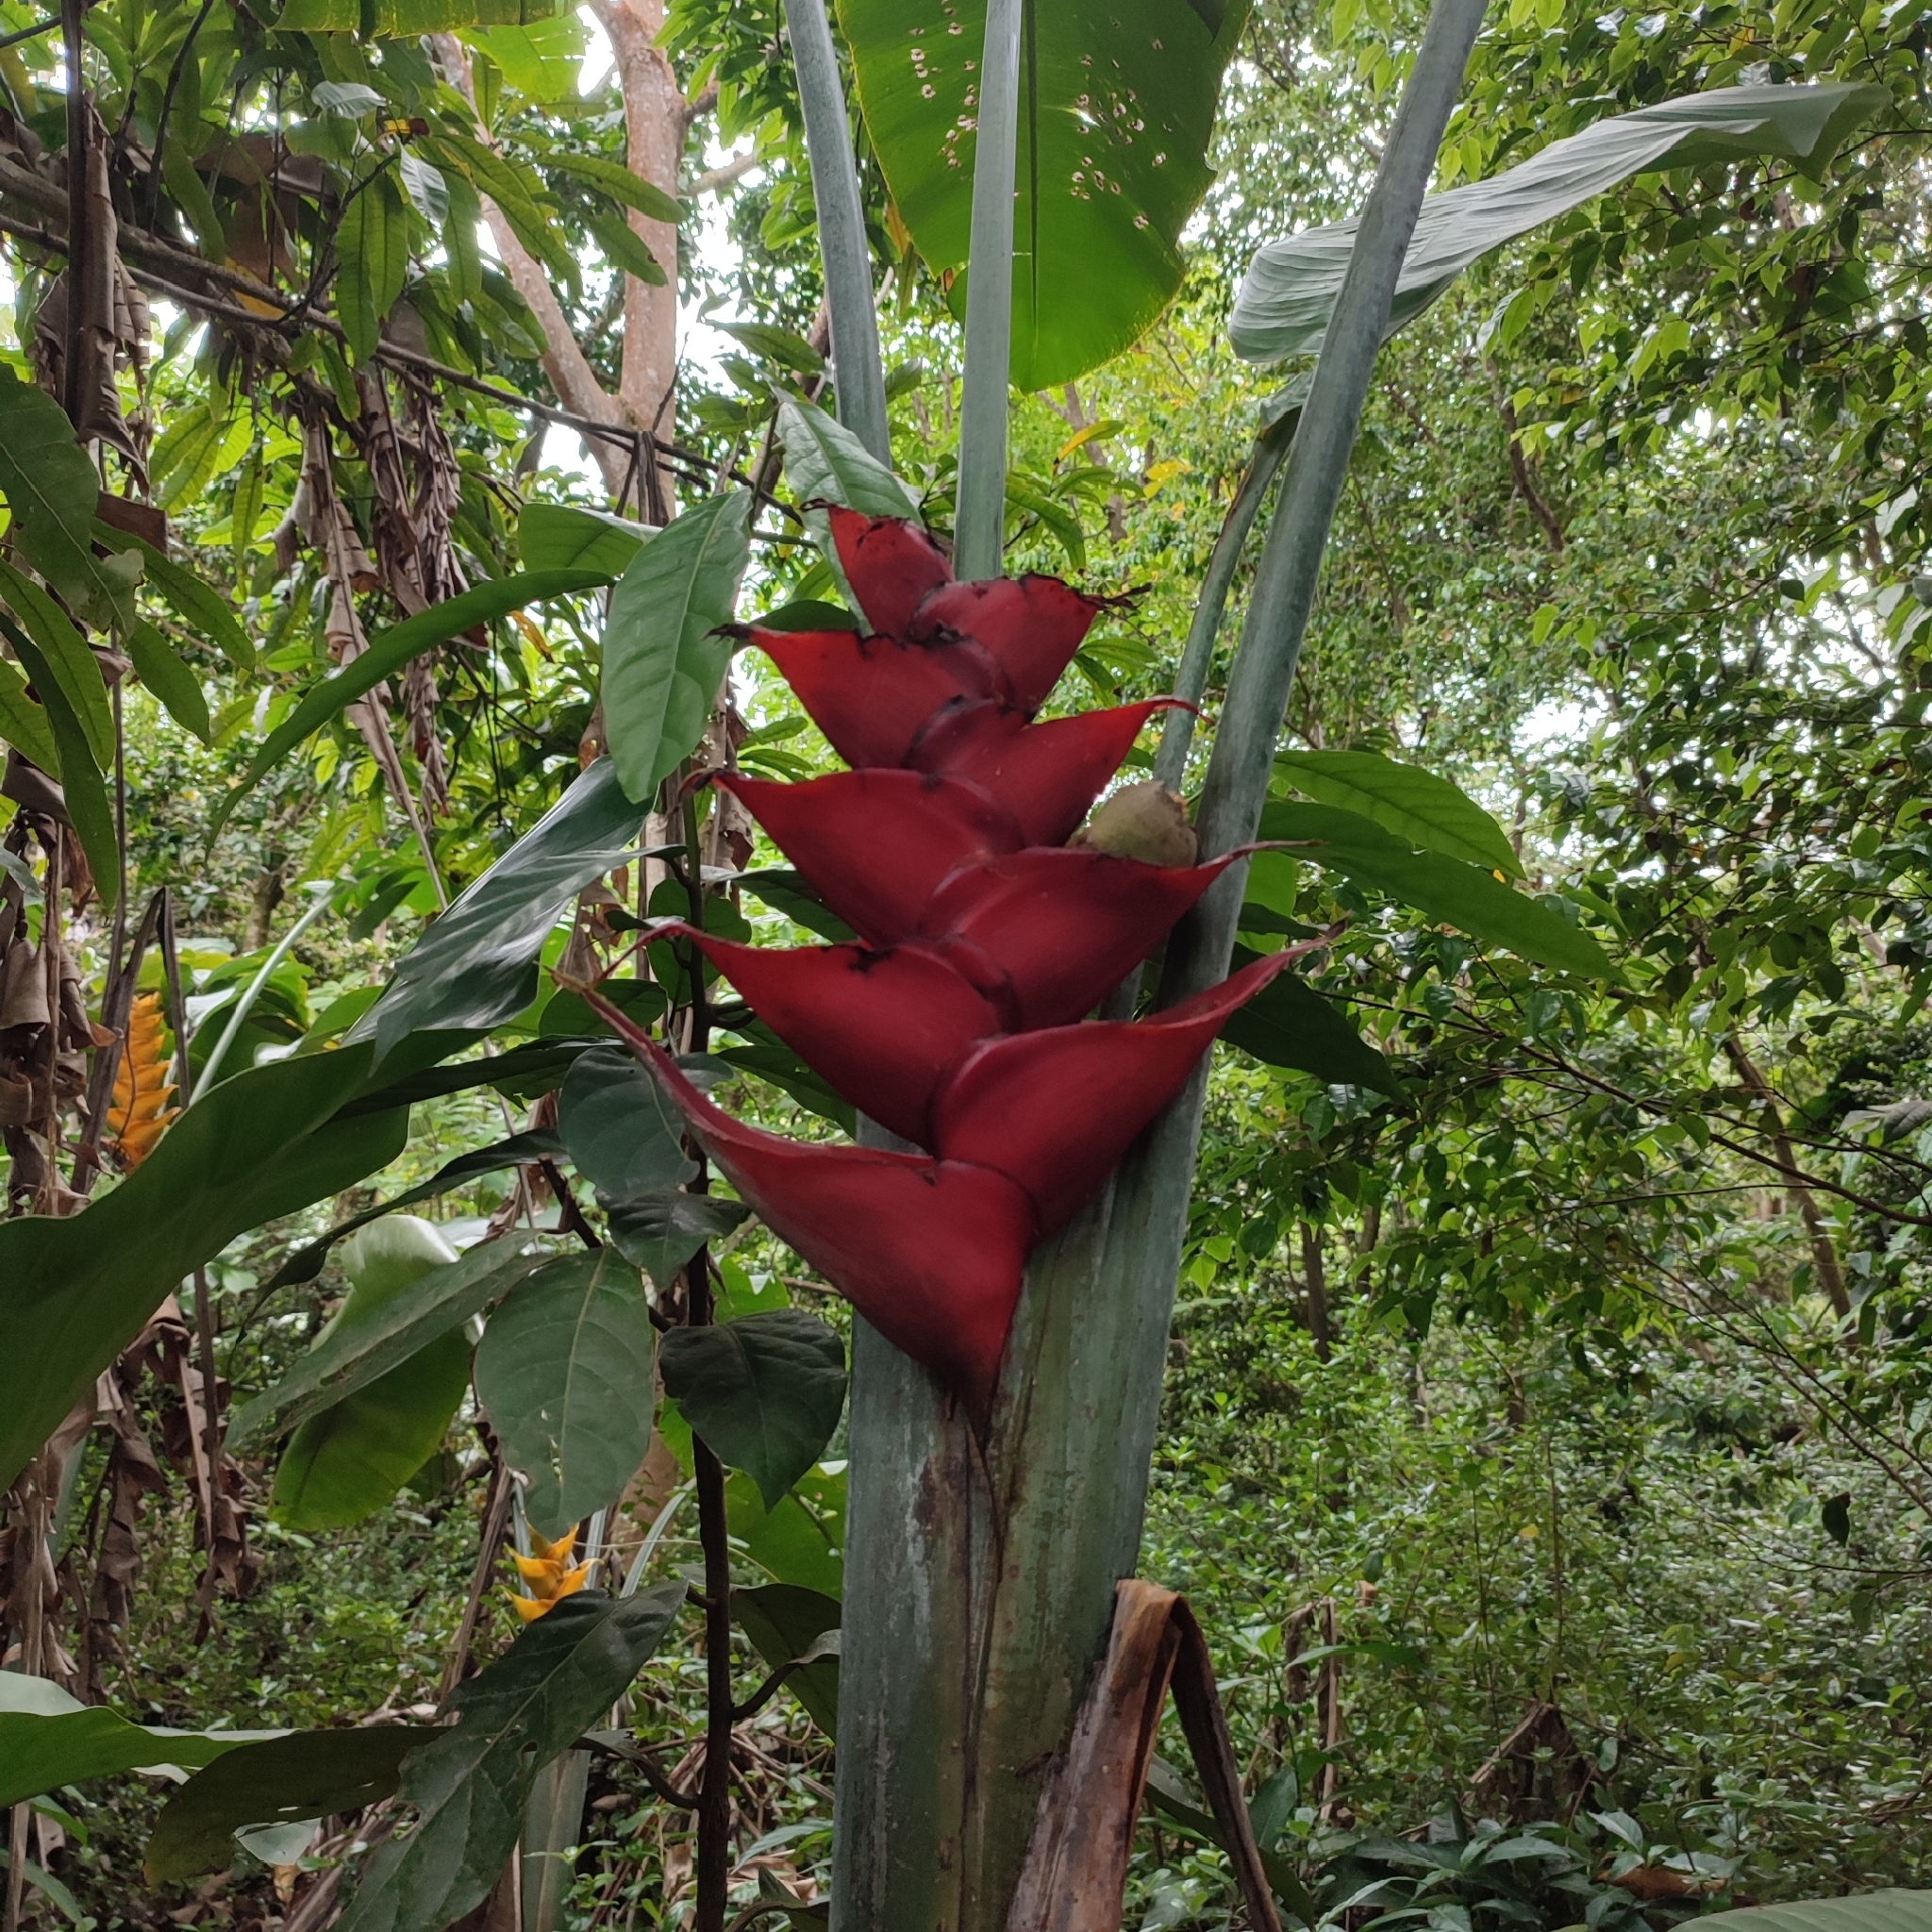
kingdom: Plantae
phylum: Tracheophyta
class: Liliopsida
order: Zingiberales
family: Heliconiaceae
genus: Heliconia
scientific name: Heliconia caribaea
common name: Wild plantain
